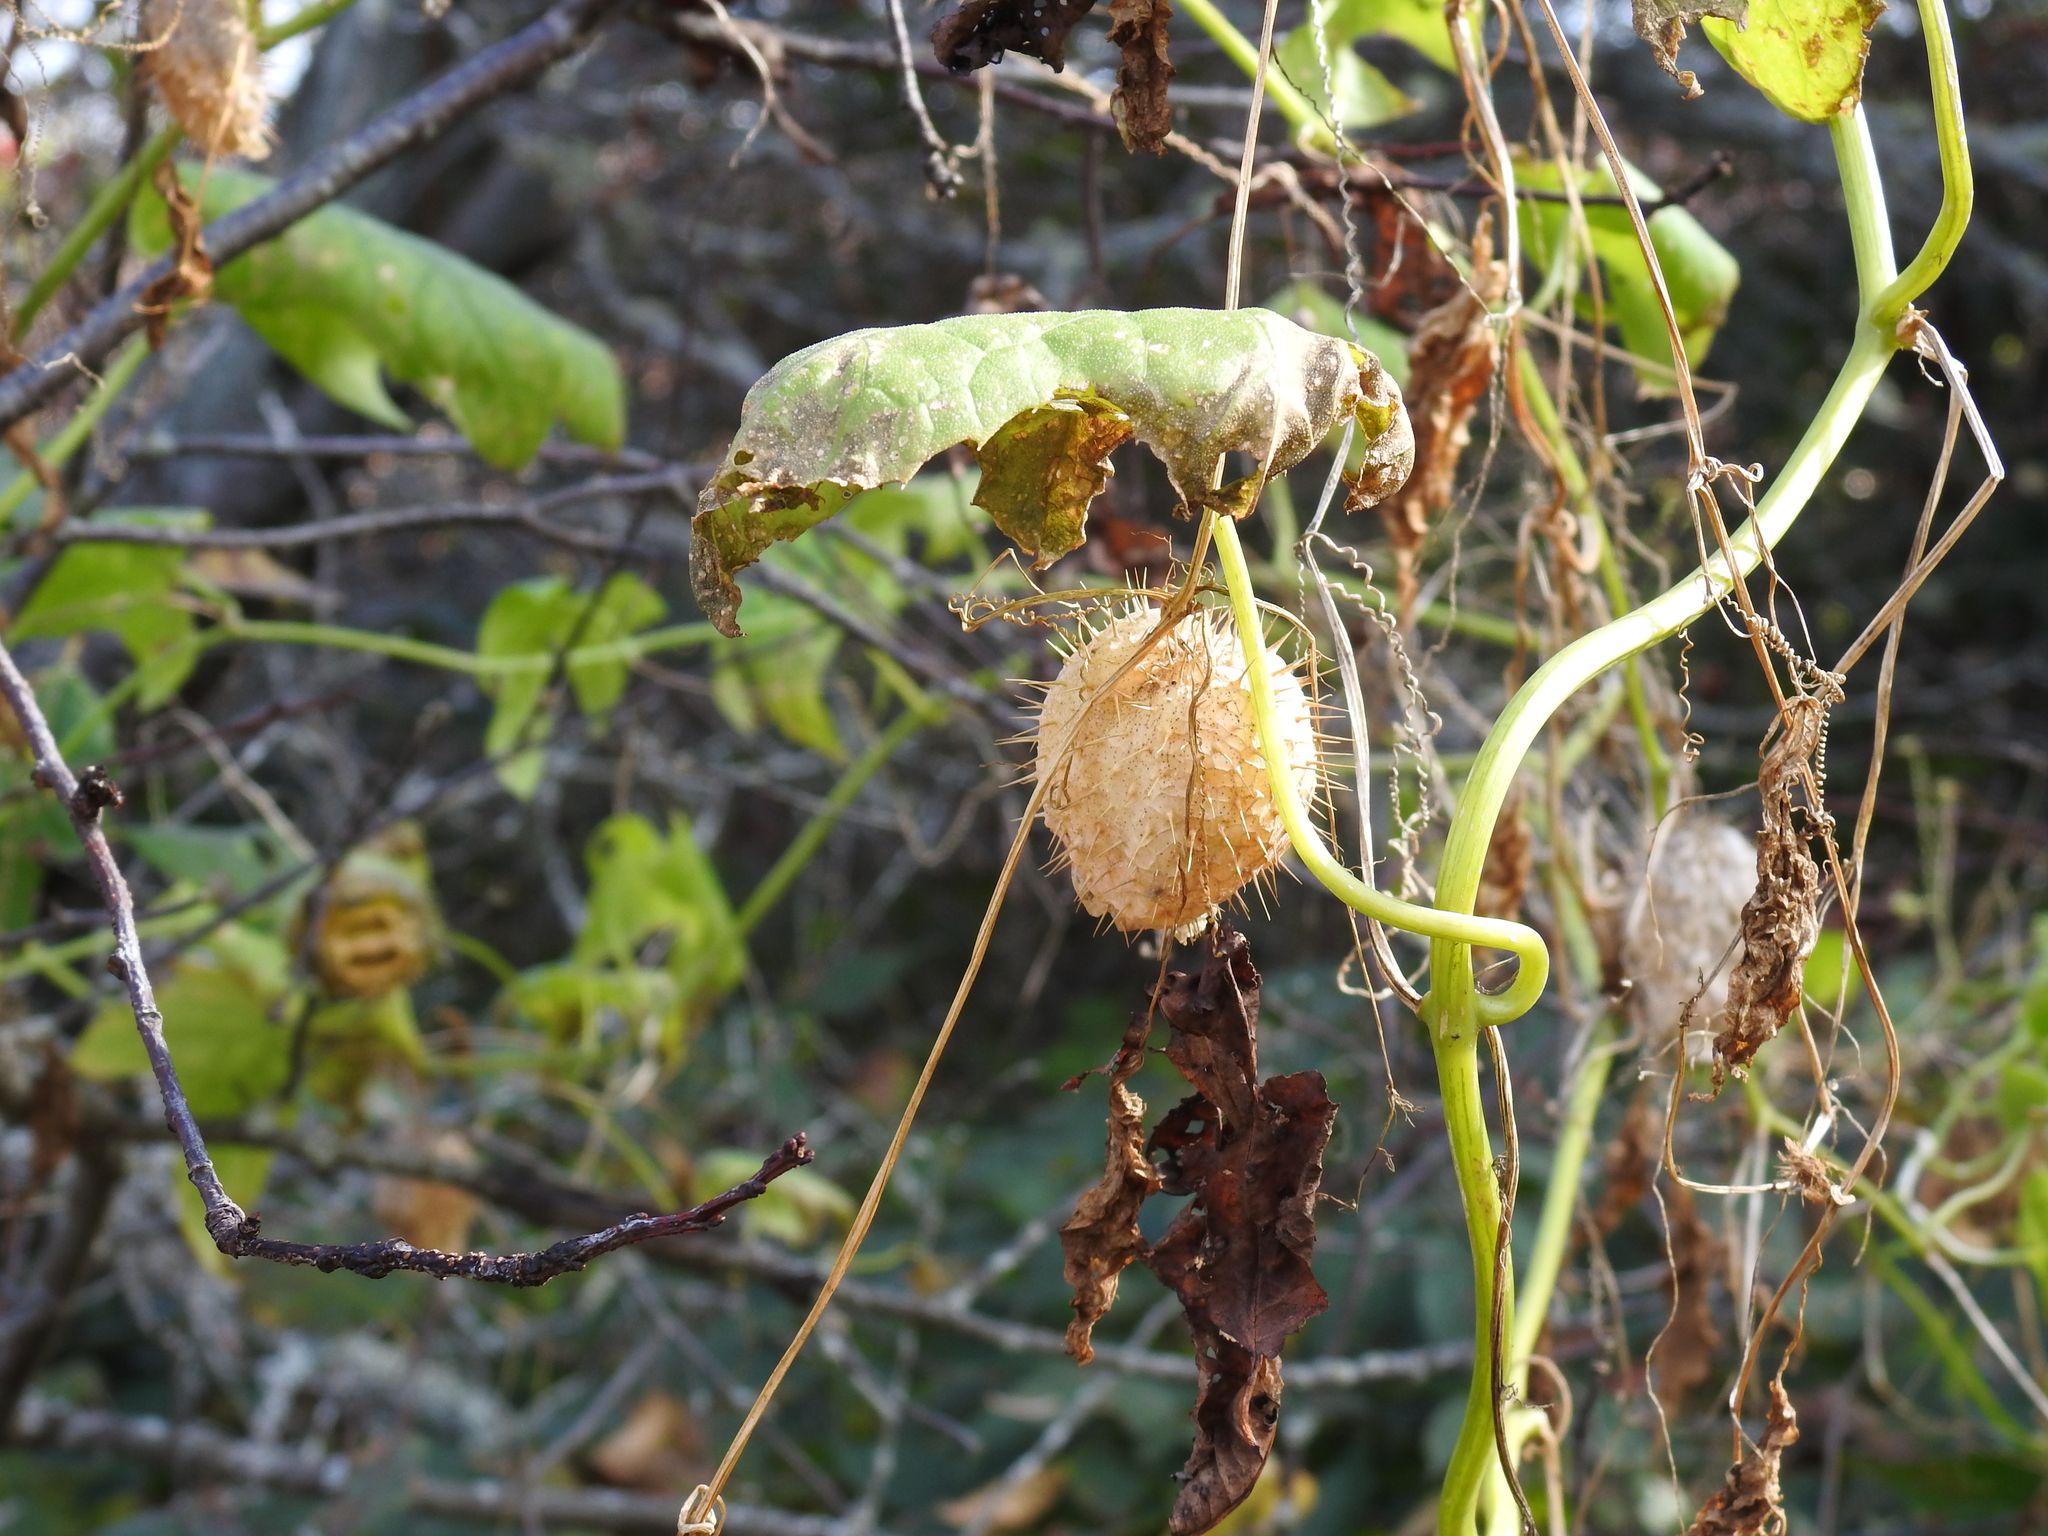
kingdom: Plantae
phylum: Tracheophyta
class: Magnoliopsida
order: Cucurbitales
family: Cucurbitaceae
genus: Echinocystis
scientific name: Echinocystis lobata
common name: Wild cucumber
